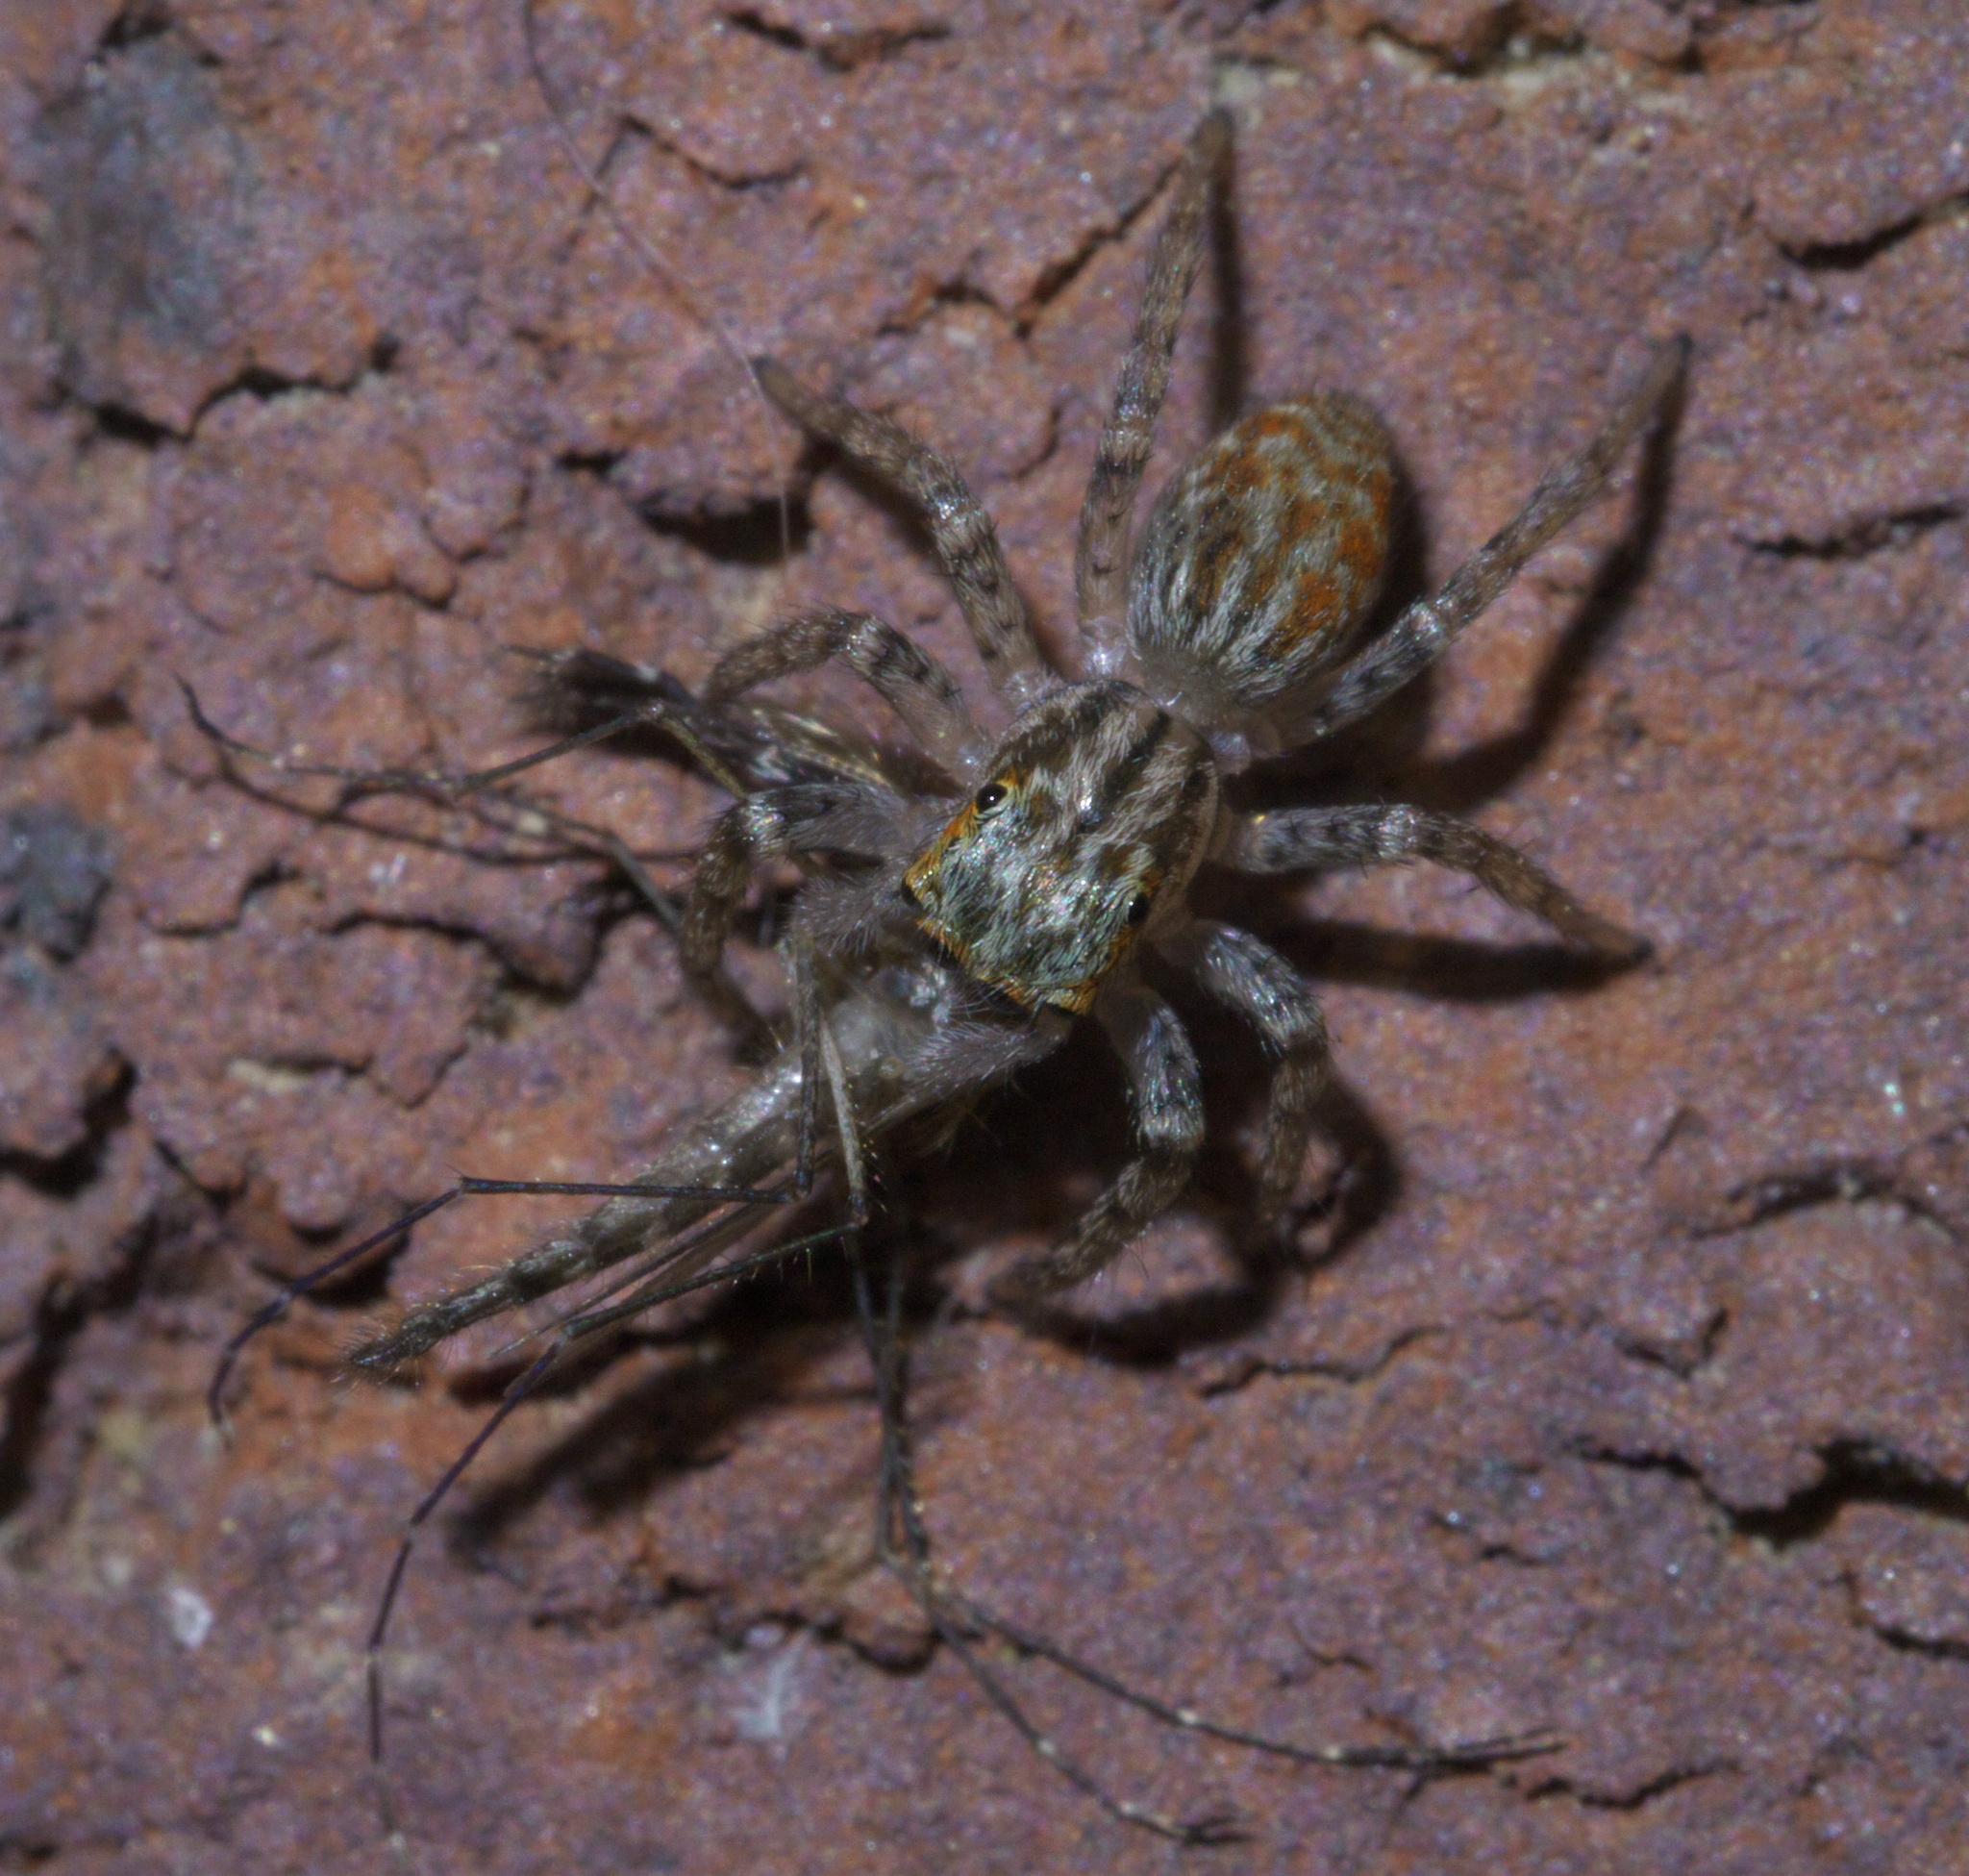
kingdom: Animalia
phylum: Arthropoda
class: Arachnida
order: Araneae
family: Salticidae
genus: Maevia
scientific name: Maevia inclemens
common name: Dimorphic jumper
